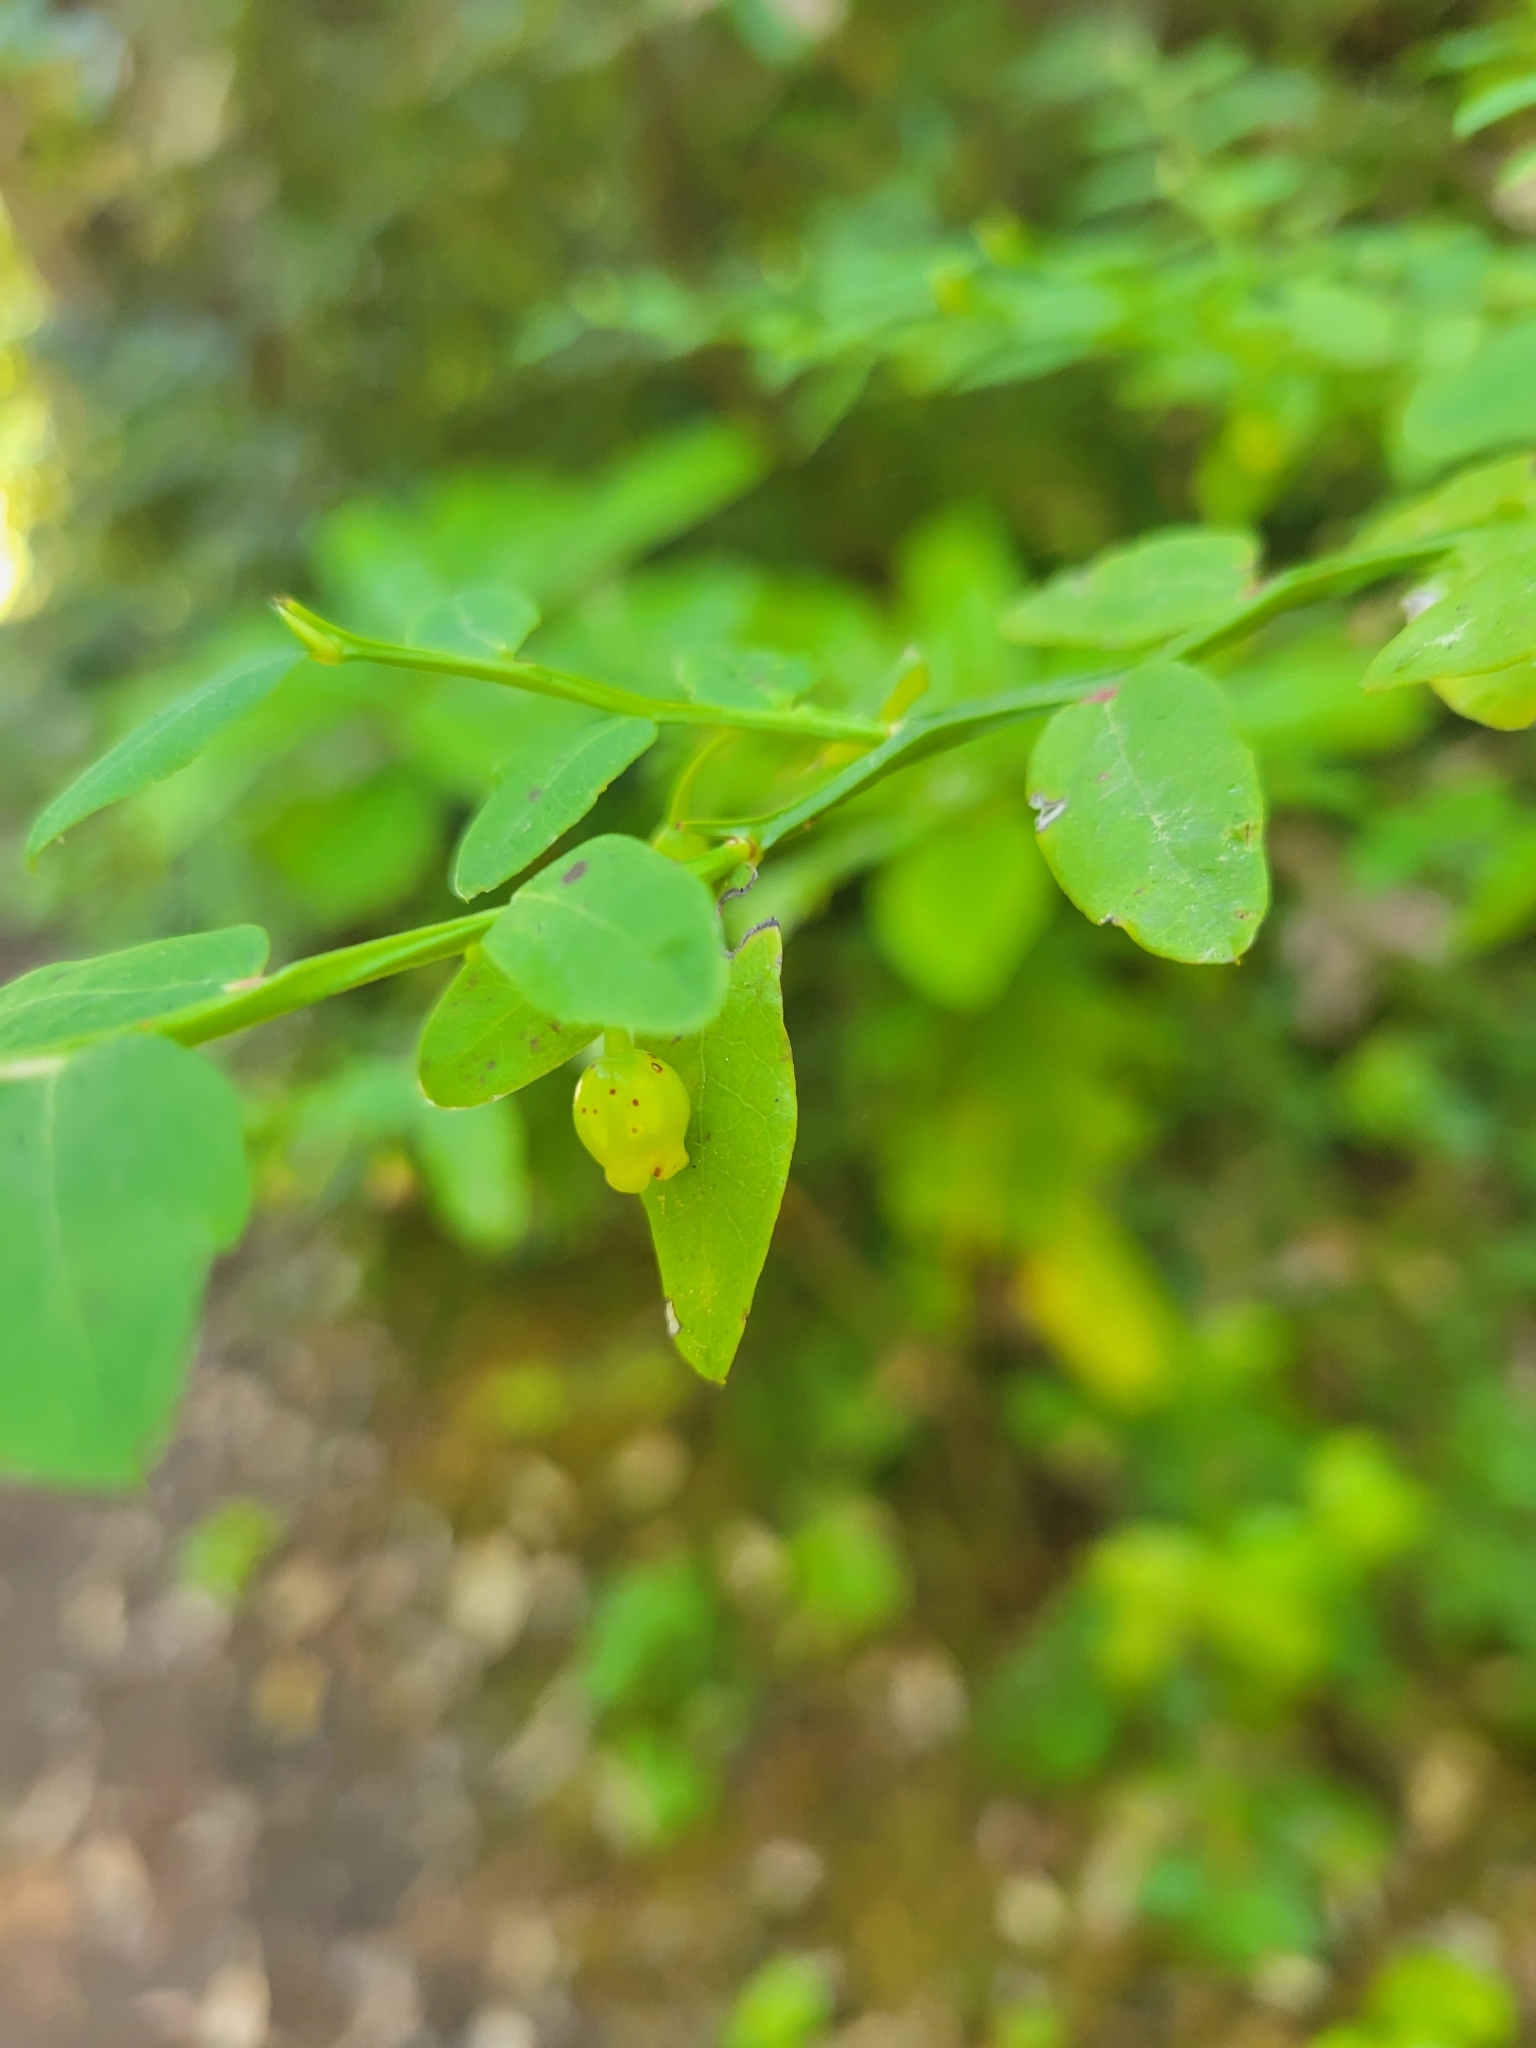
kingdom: Plantae
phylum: Tracheophyta
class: Magnoliopsida
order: Ericales
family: Ericaceae
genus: Vaccinium
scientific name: Vaccinium parvifolium
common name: Red-huckleberry
